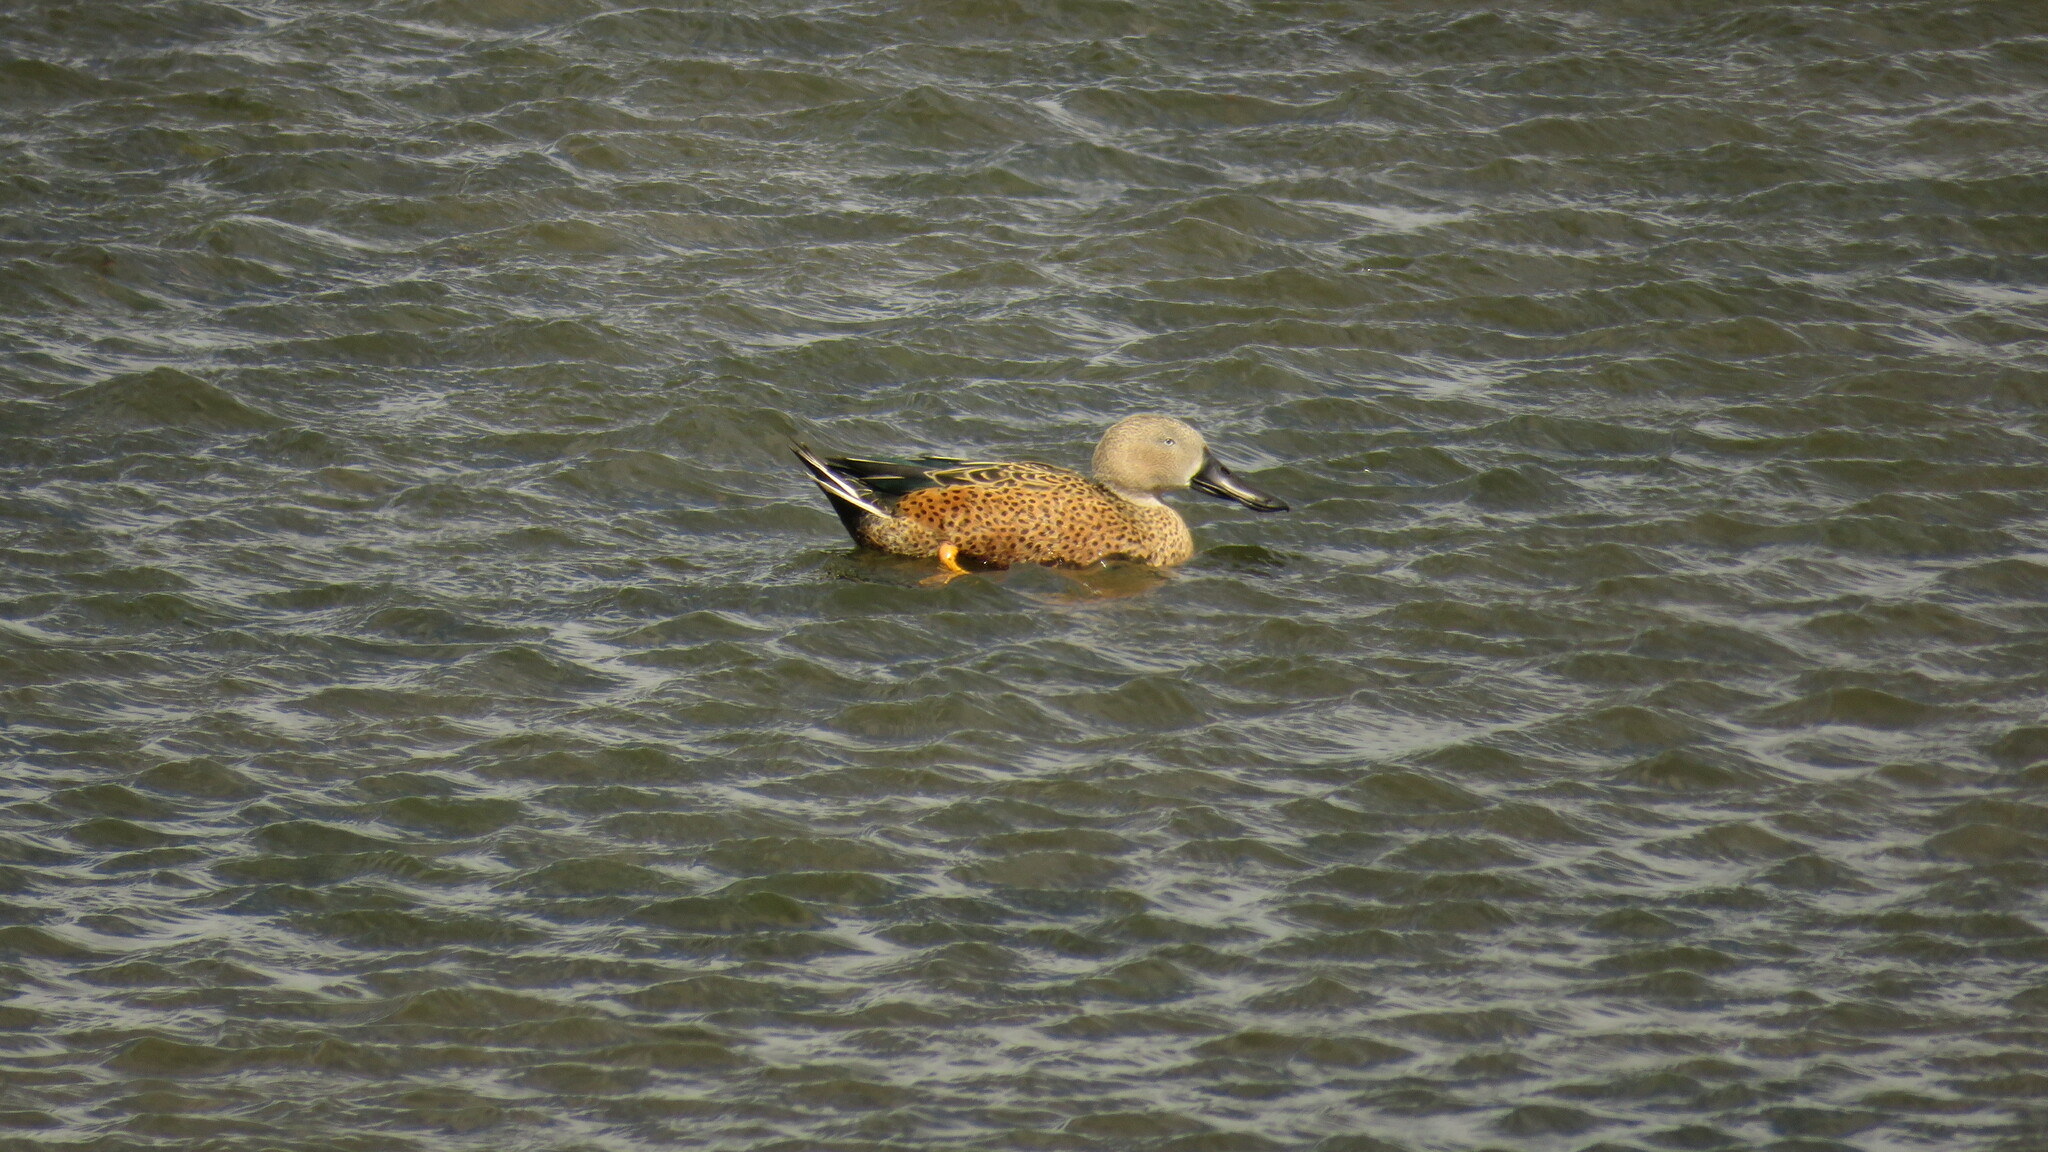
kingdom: Animalia
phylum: Chordata
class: Aves
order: Anseriformes
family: Anatidae
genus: Spatula
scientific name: Spatula platalea
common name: Red shoveler
